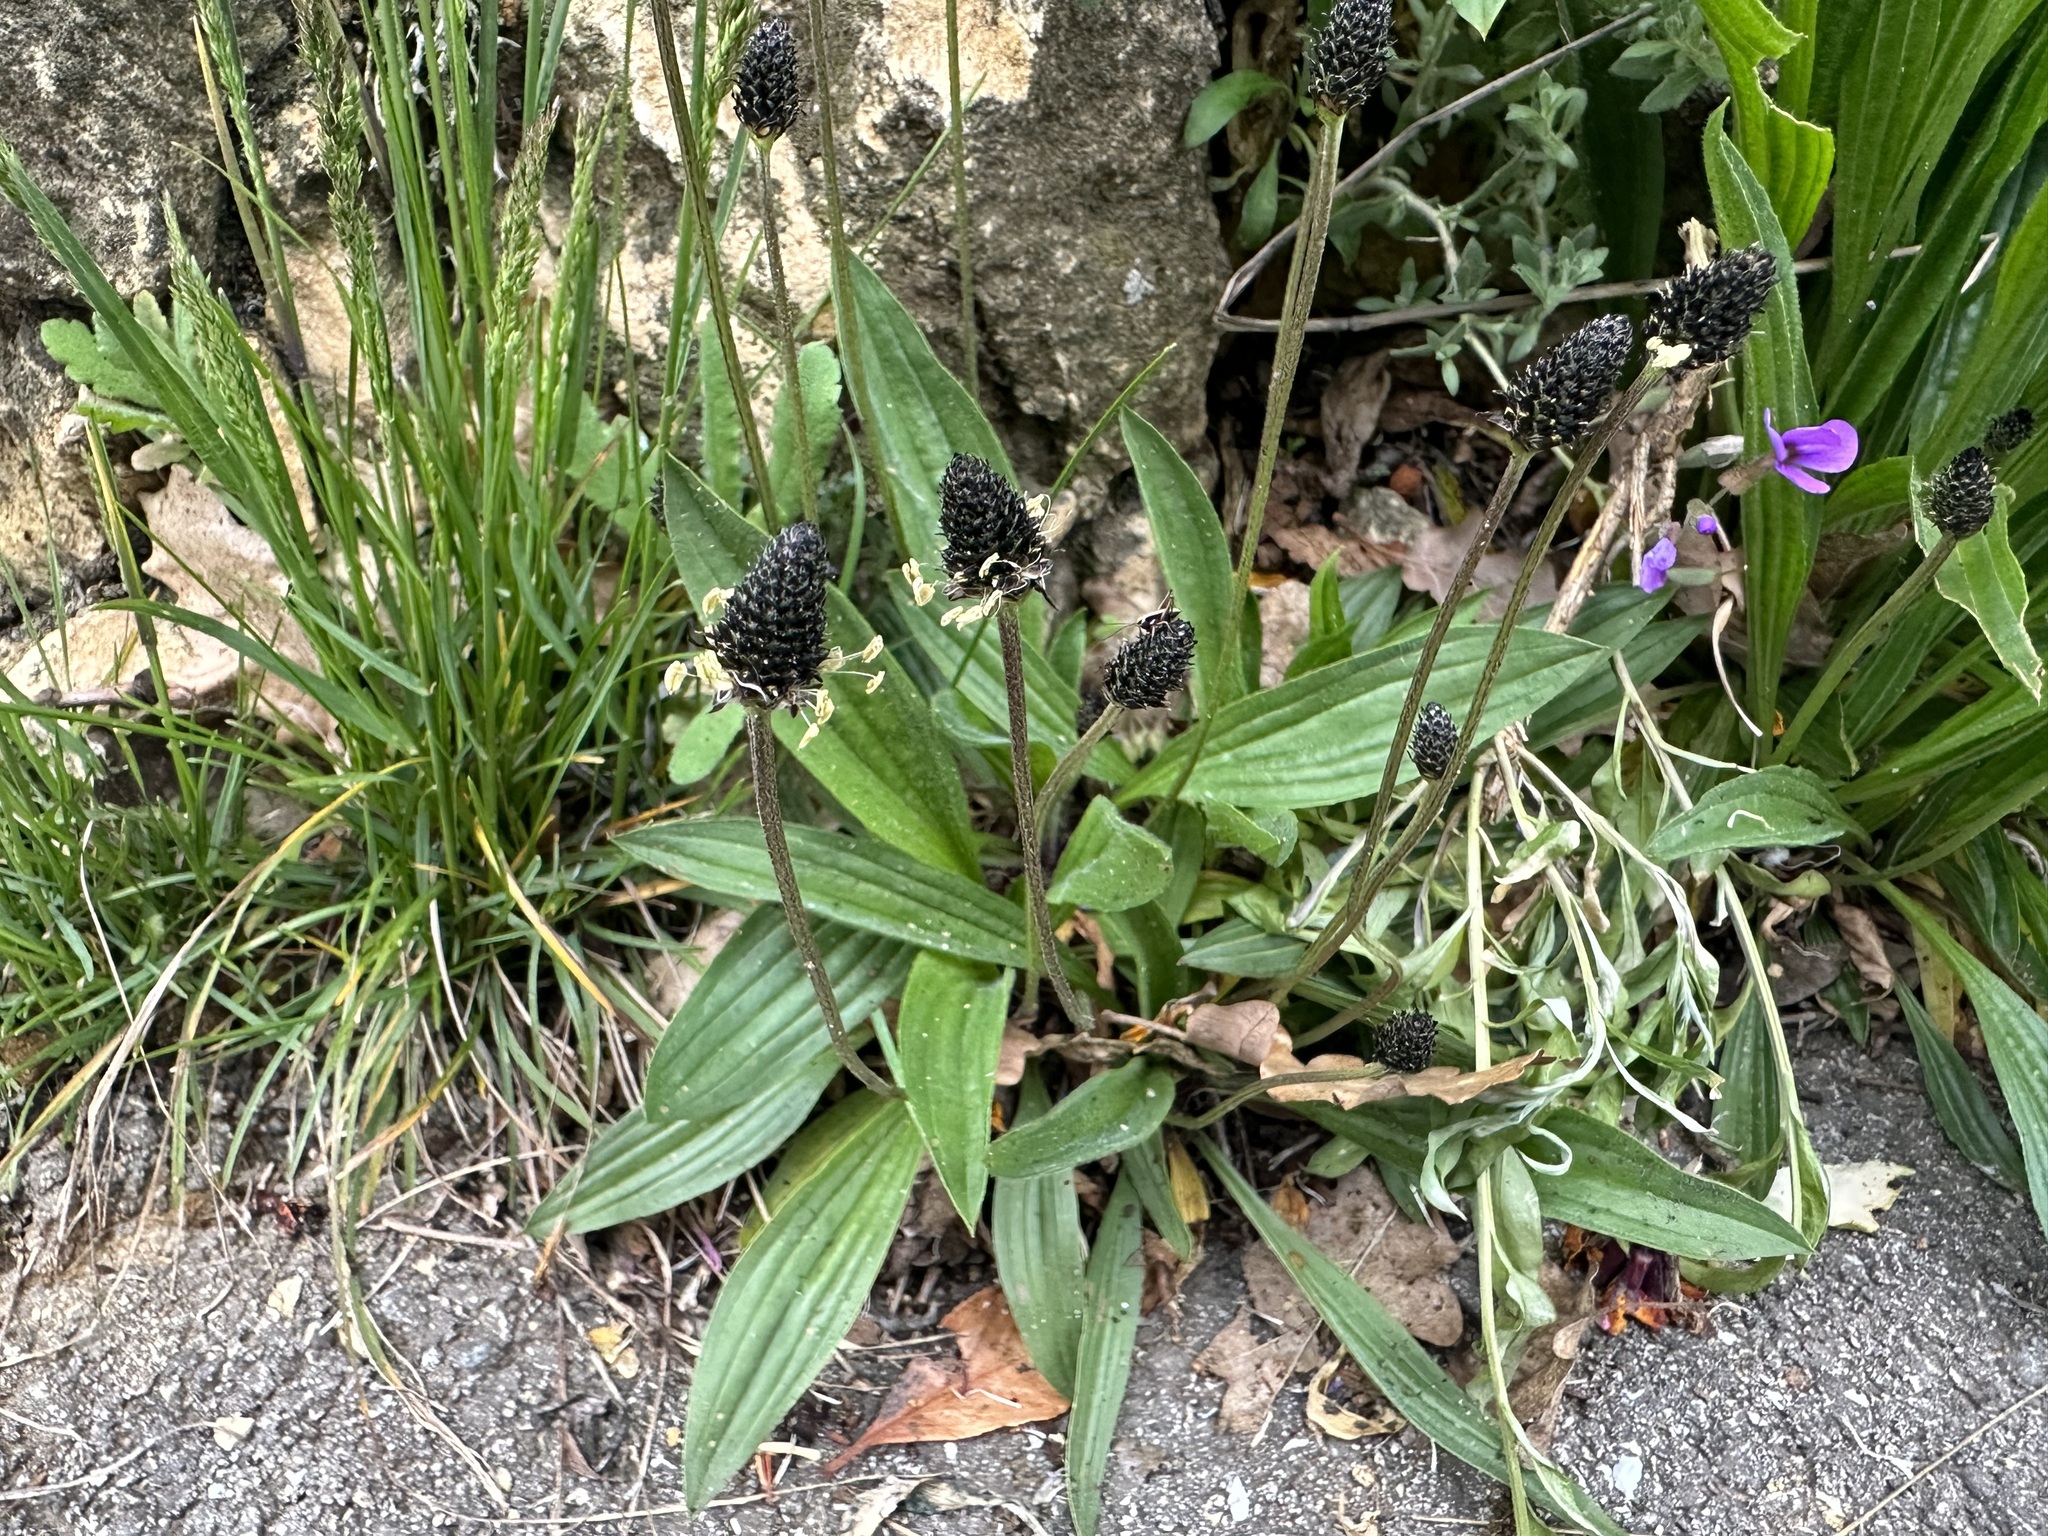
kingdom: Plantae
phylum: Tracheophyta
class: Magnoliopsida
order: Lamiales
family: Plantaginaceae
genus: Plantago
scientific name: Plantago lanceolata
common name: Ribwort plantain
